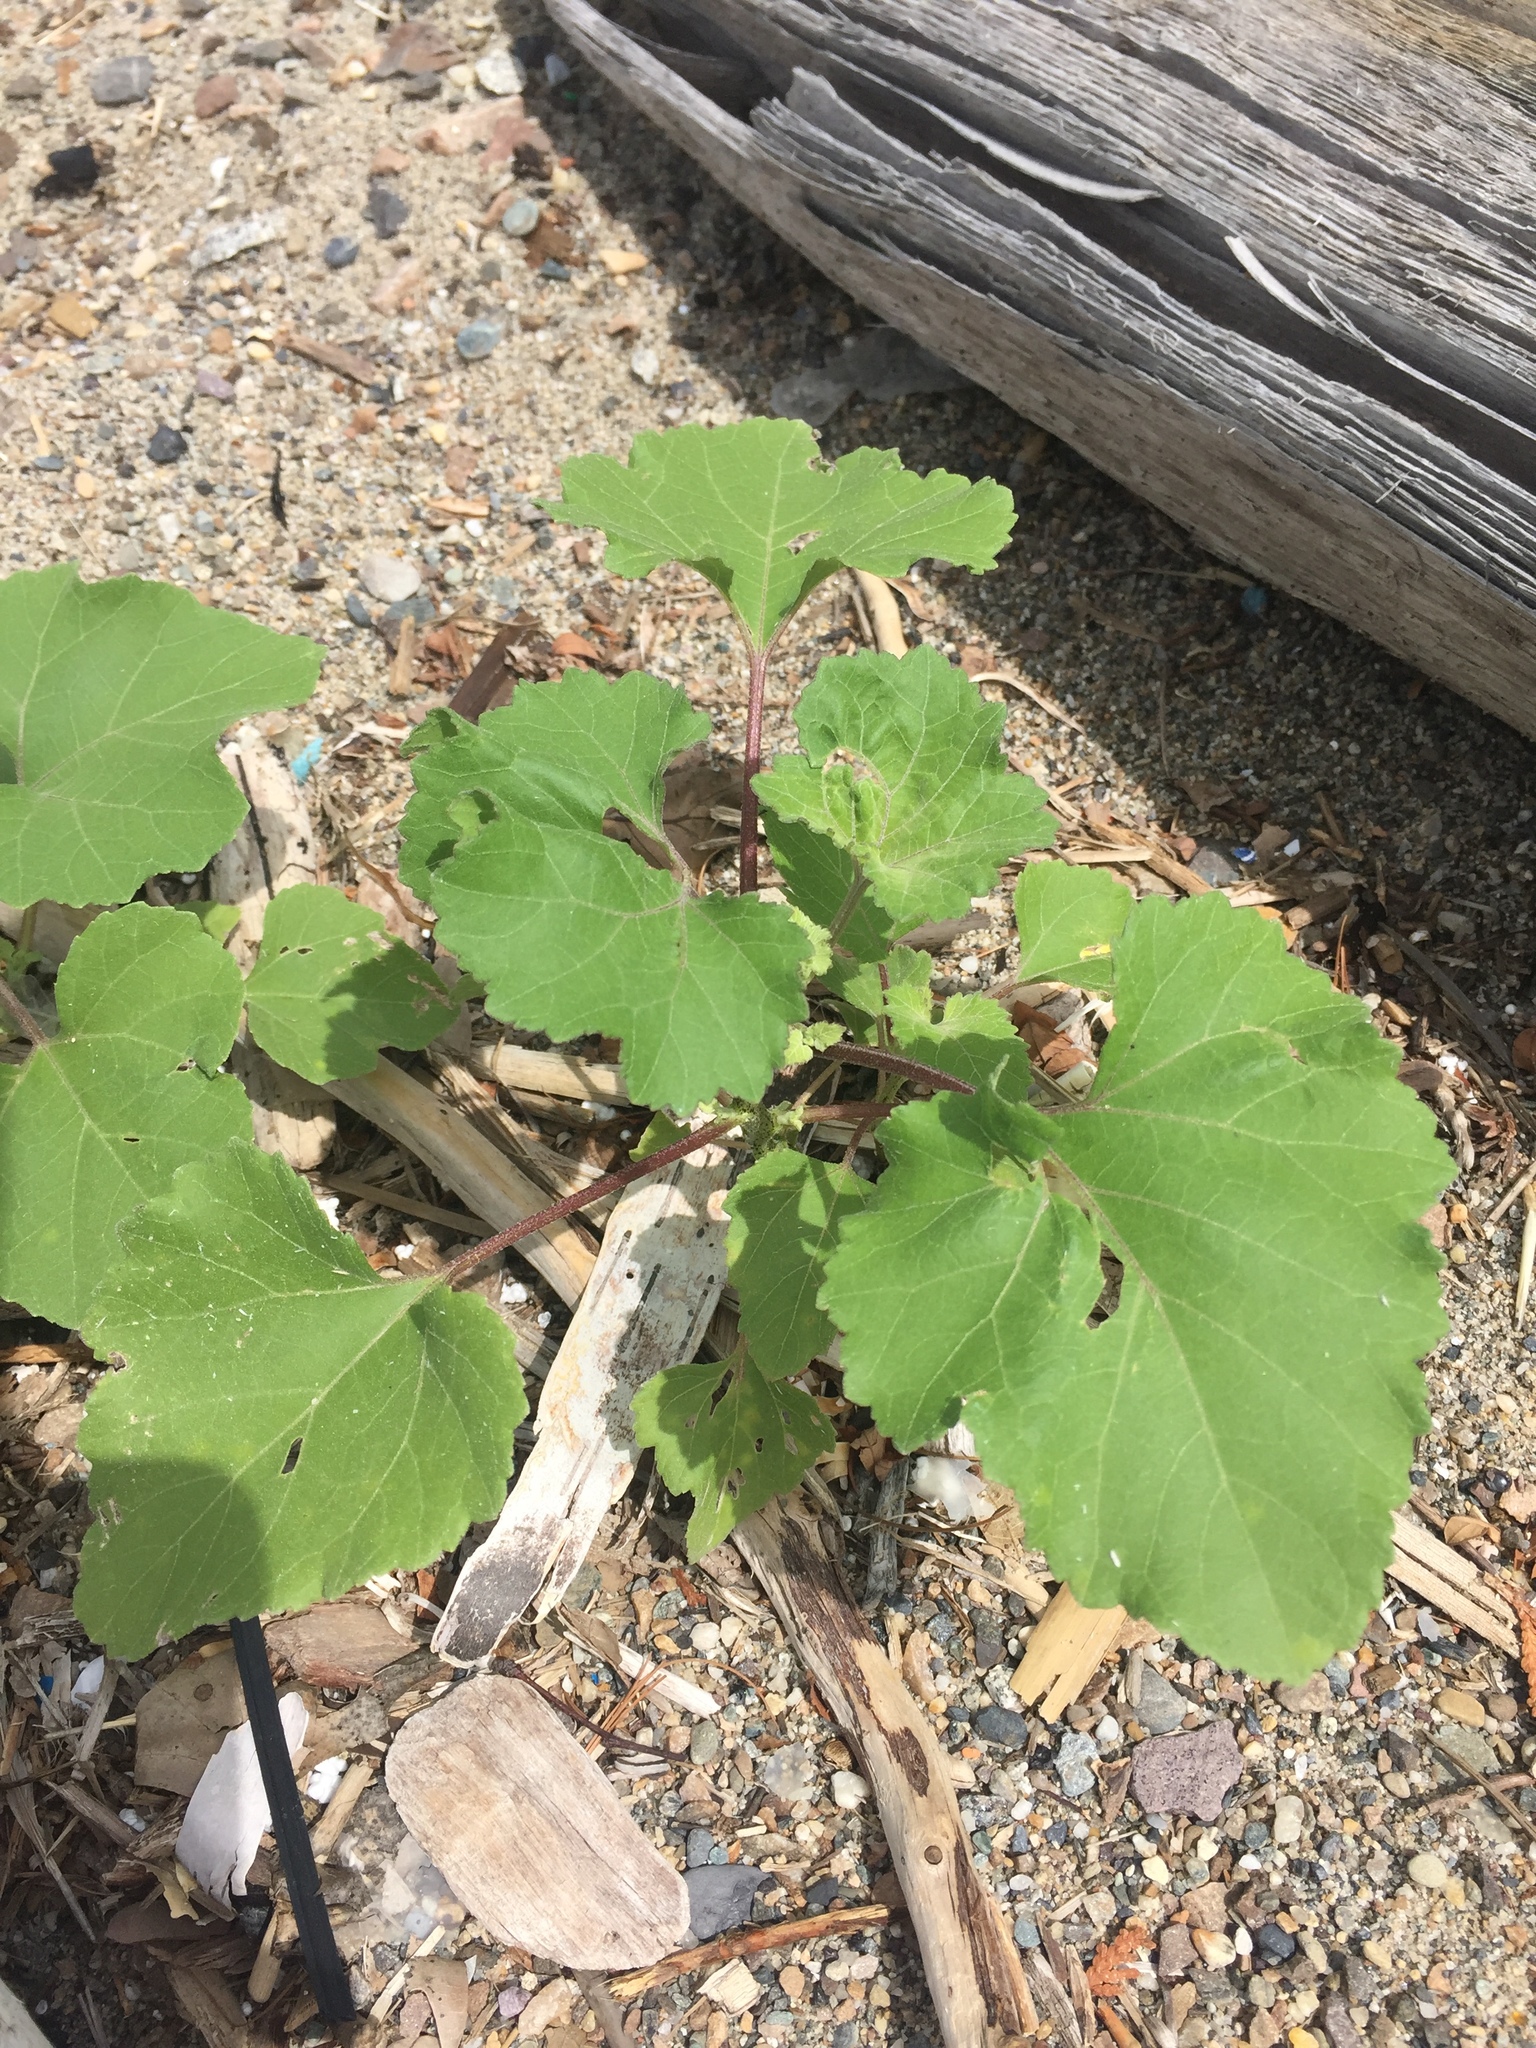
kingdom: Plantae
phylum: Tracheophyta
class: Magnoliopsida
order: Asterales
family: Asteraceae
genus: Xanthium
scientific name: Xanthium strumarium
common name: Rough cocklebur
